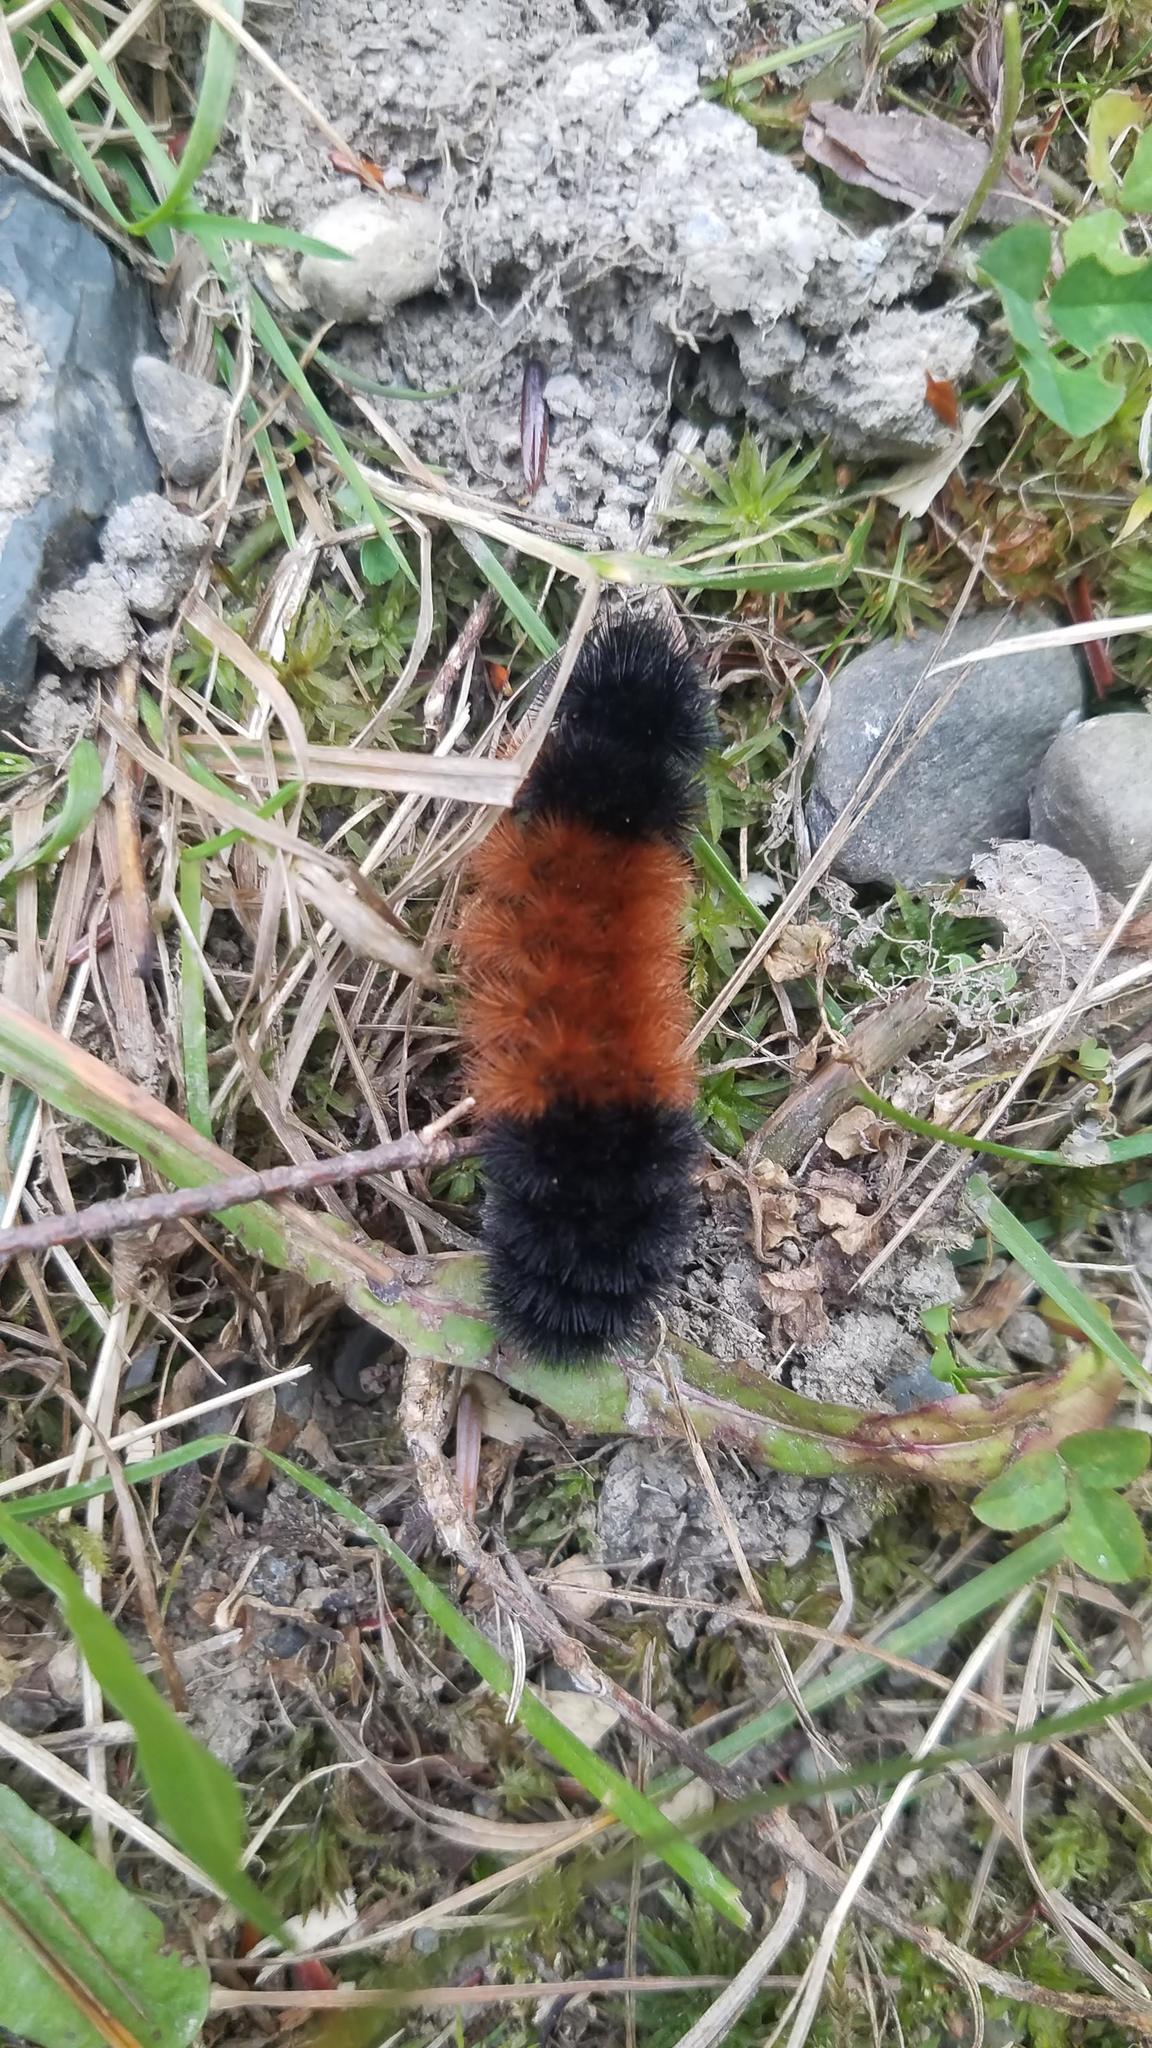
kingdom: Animalia
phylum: Arthropoda
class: Insecta
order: Lepidoptera
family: Erebidae
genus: Pyrrharctia
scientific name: Pyrrharctia isabella
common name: Isabella tiger moth
